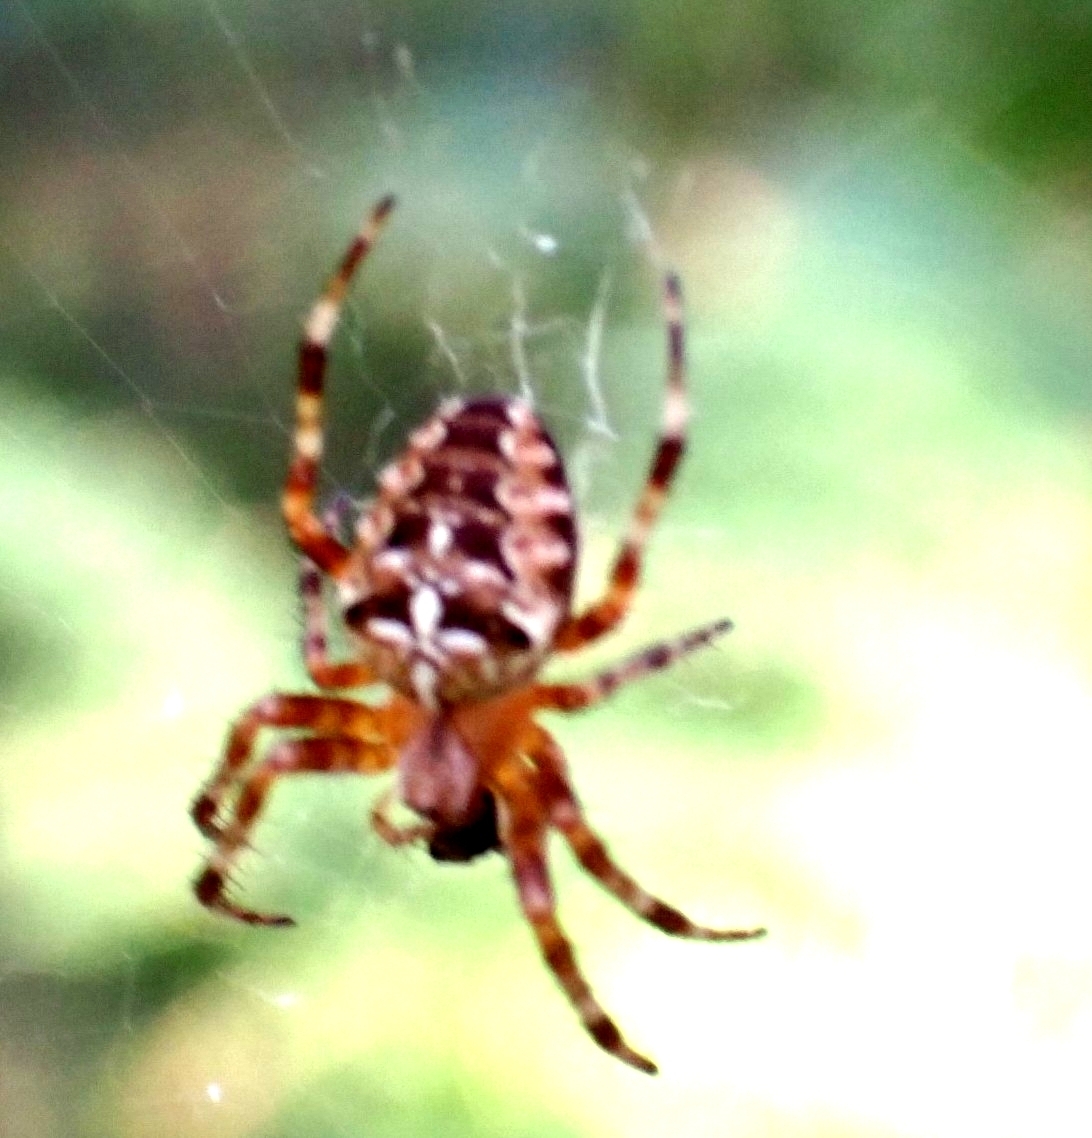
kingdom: Animalia
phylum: Arthropoda
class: Arachnida
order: Araneae
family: Araneidae
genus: Araneus
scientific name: Araneus diadematus
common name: Cross orbweaver
